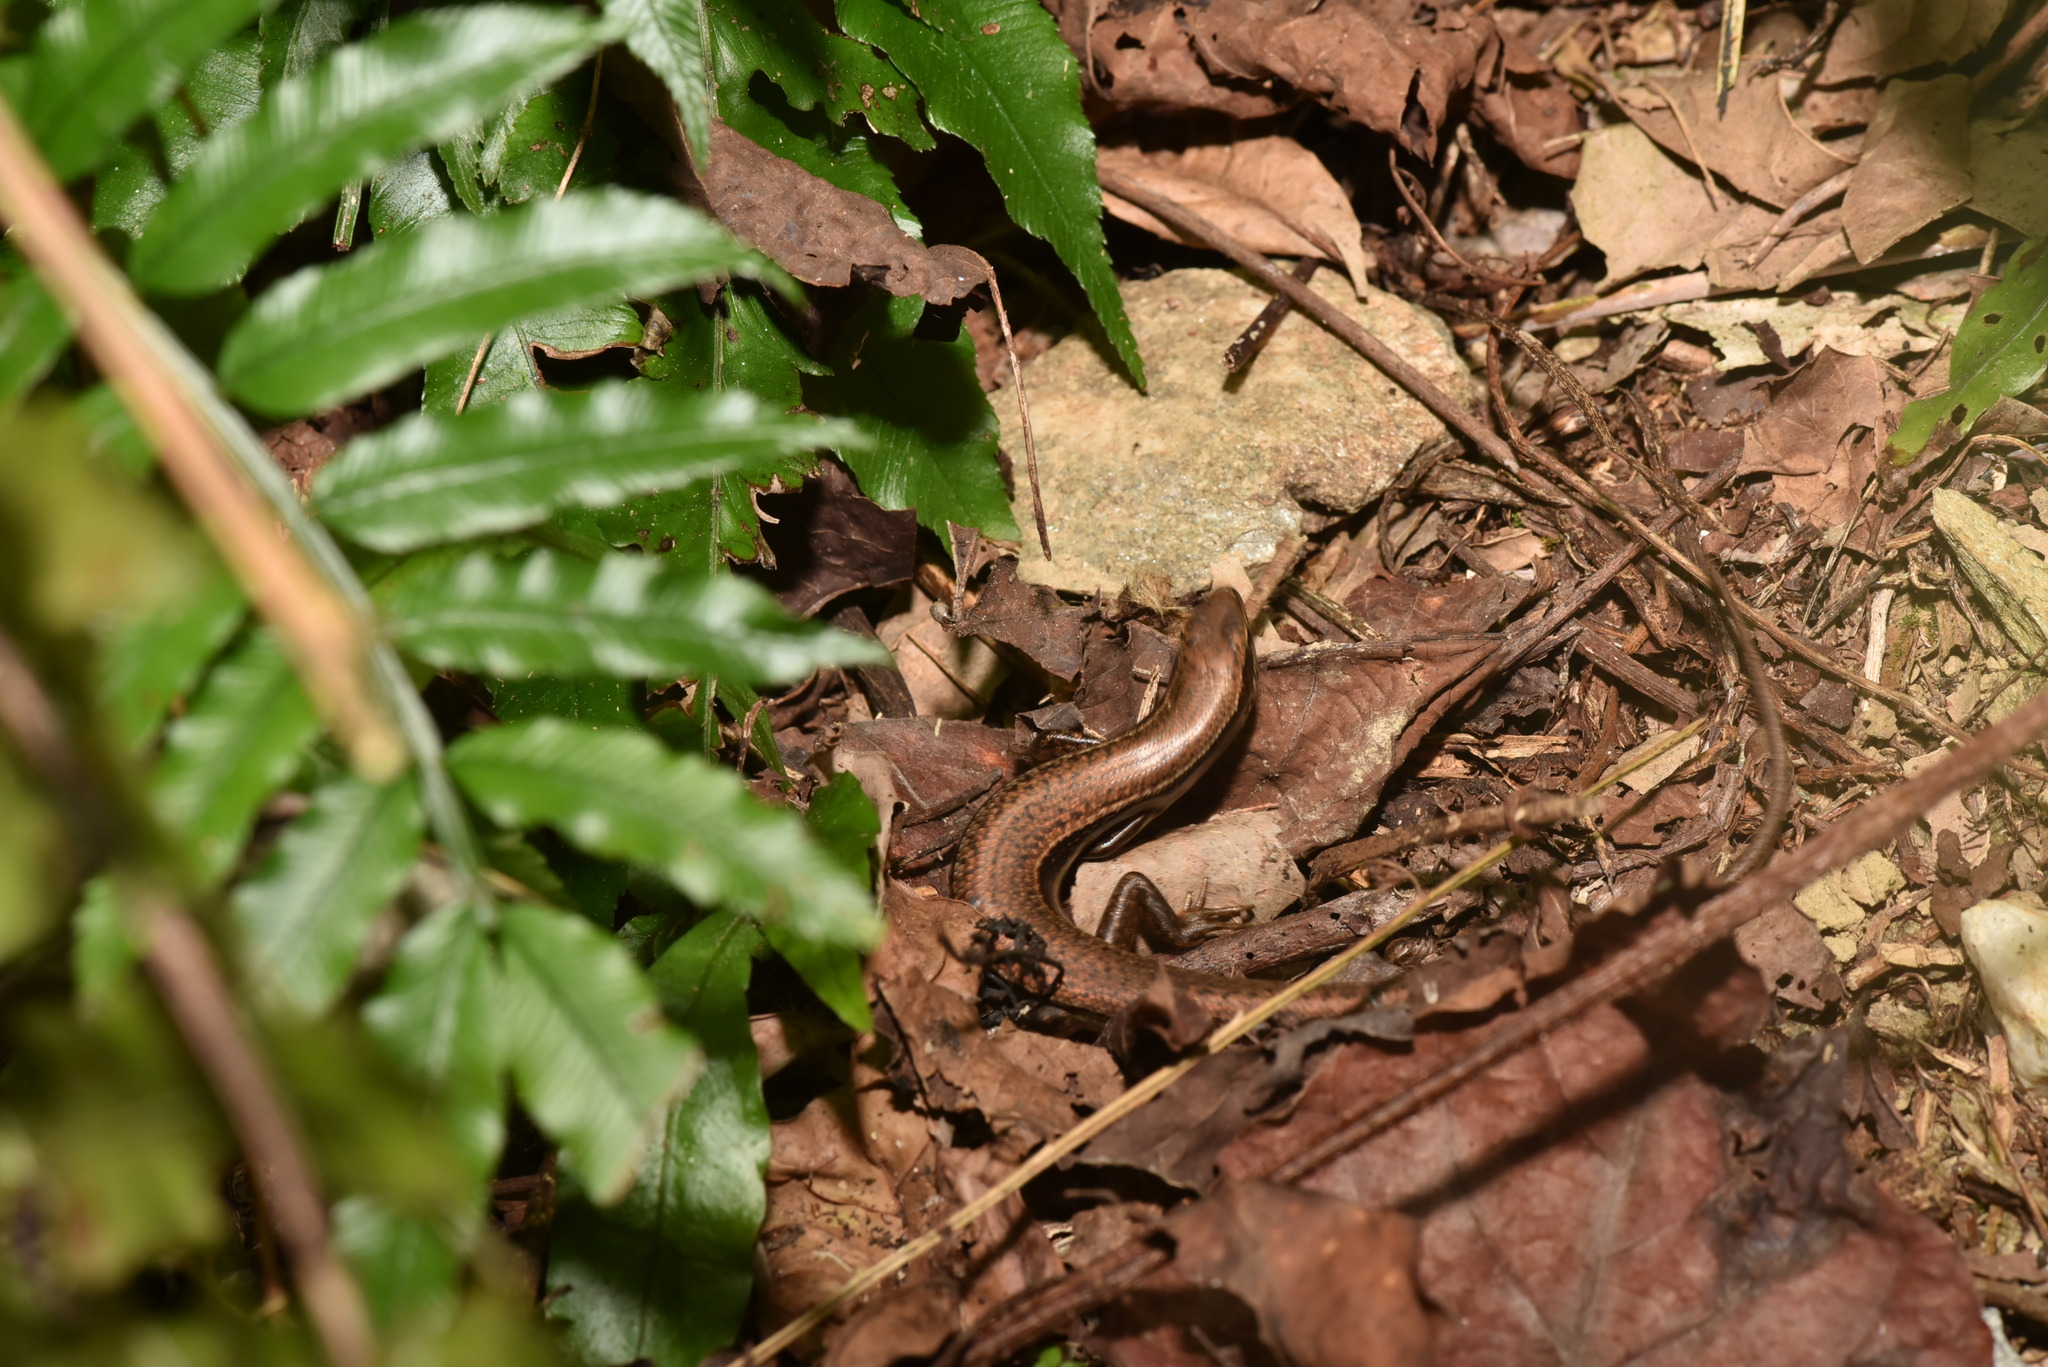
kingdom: Animalia
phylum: Chordata
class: Squamata
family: Scincidae
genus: Sphenomorphus
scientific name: Sphenomorphus indicus
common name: Himalayan forest skink
